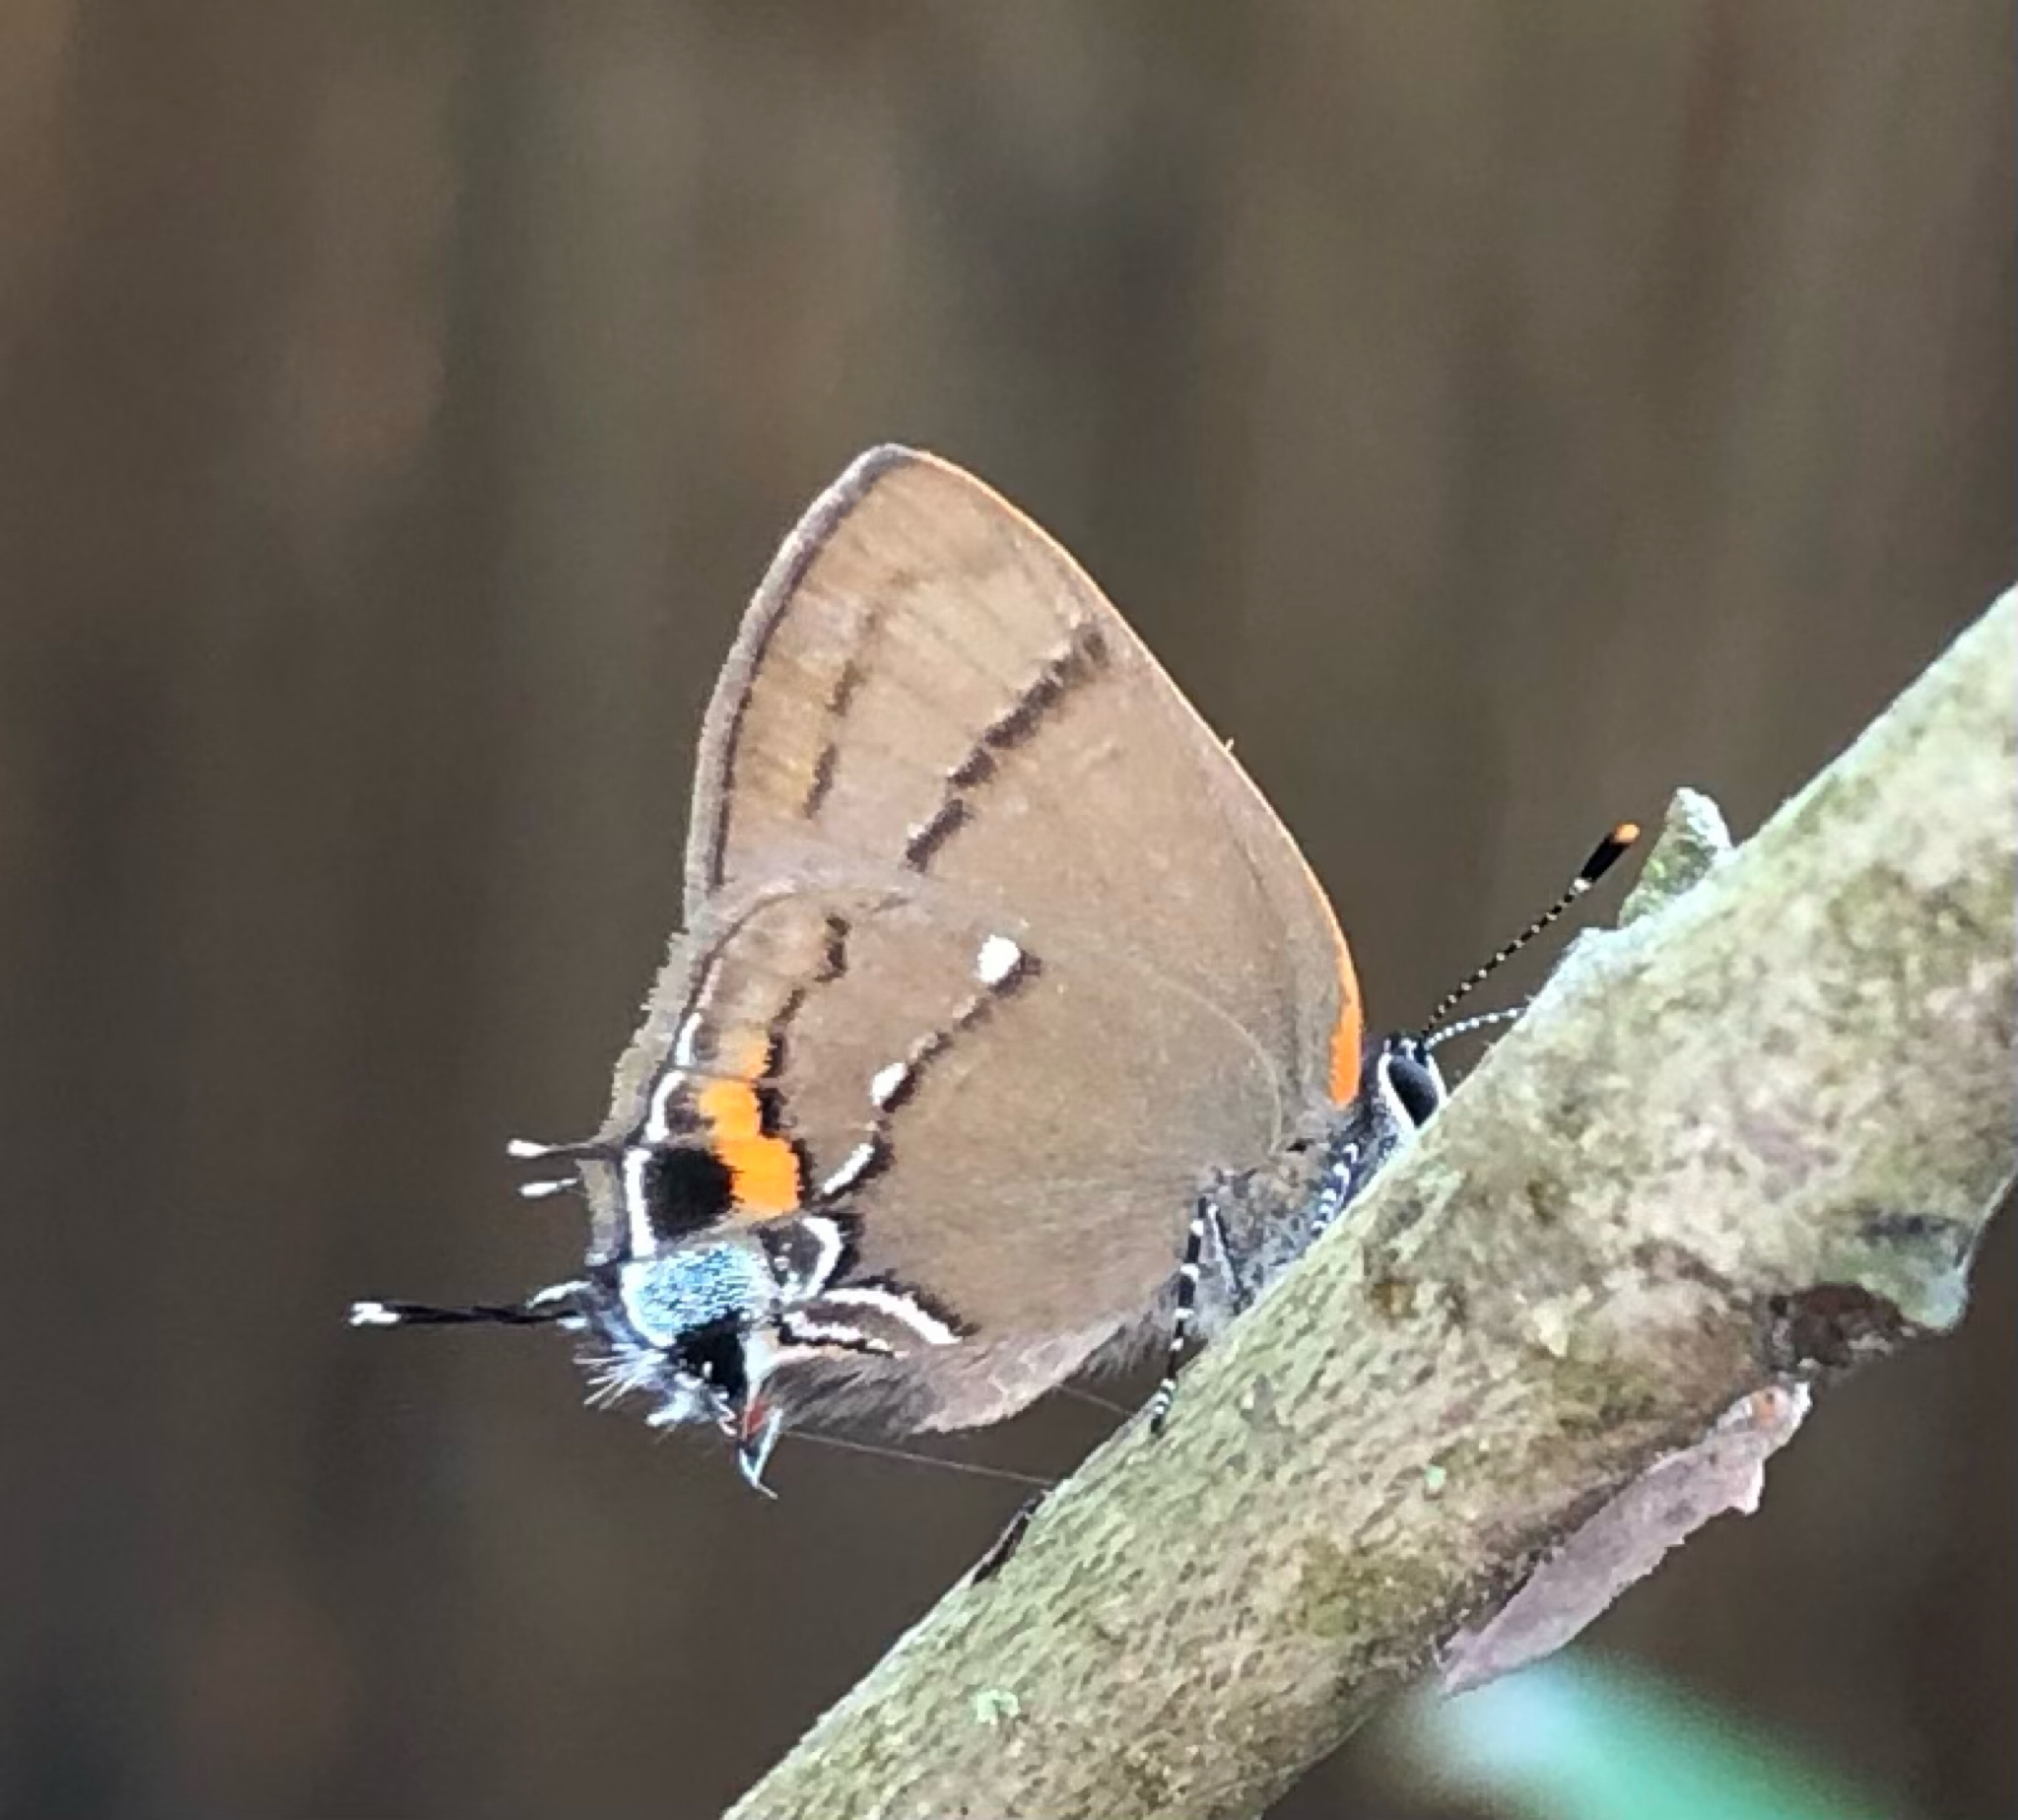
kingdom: Animalia
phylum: Arthropoda
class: Insecta
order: Lepidoptera
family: Lycaenidae
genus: Thecla
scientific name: Thecla angelia
